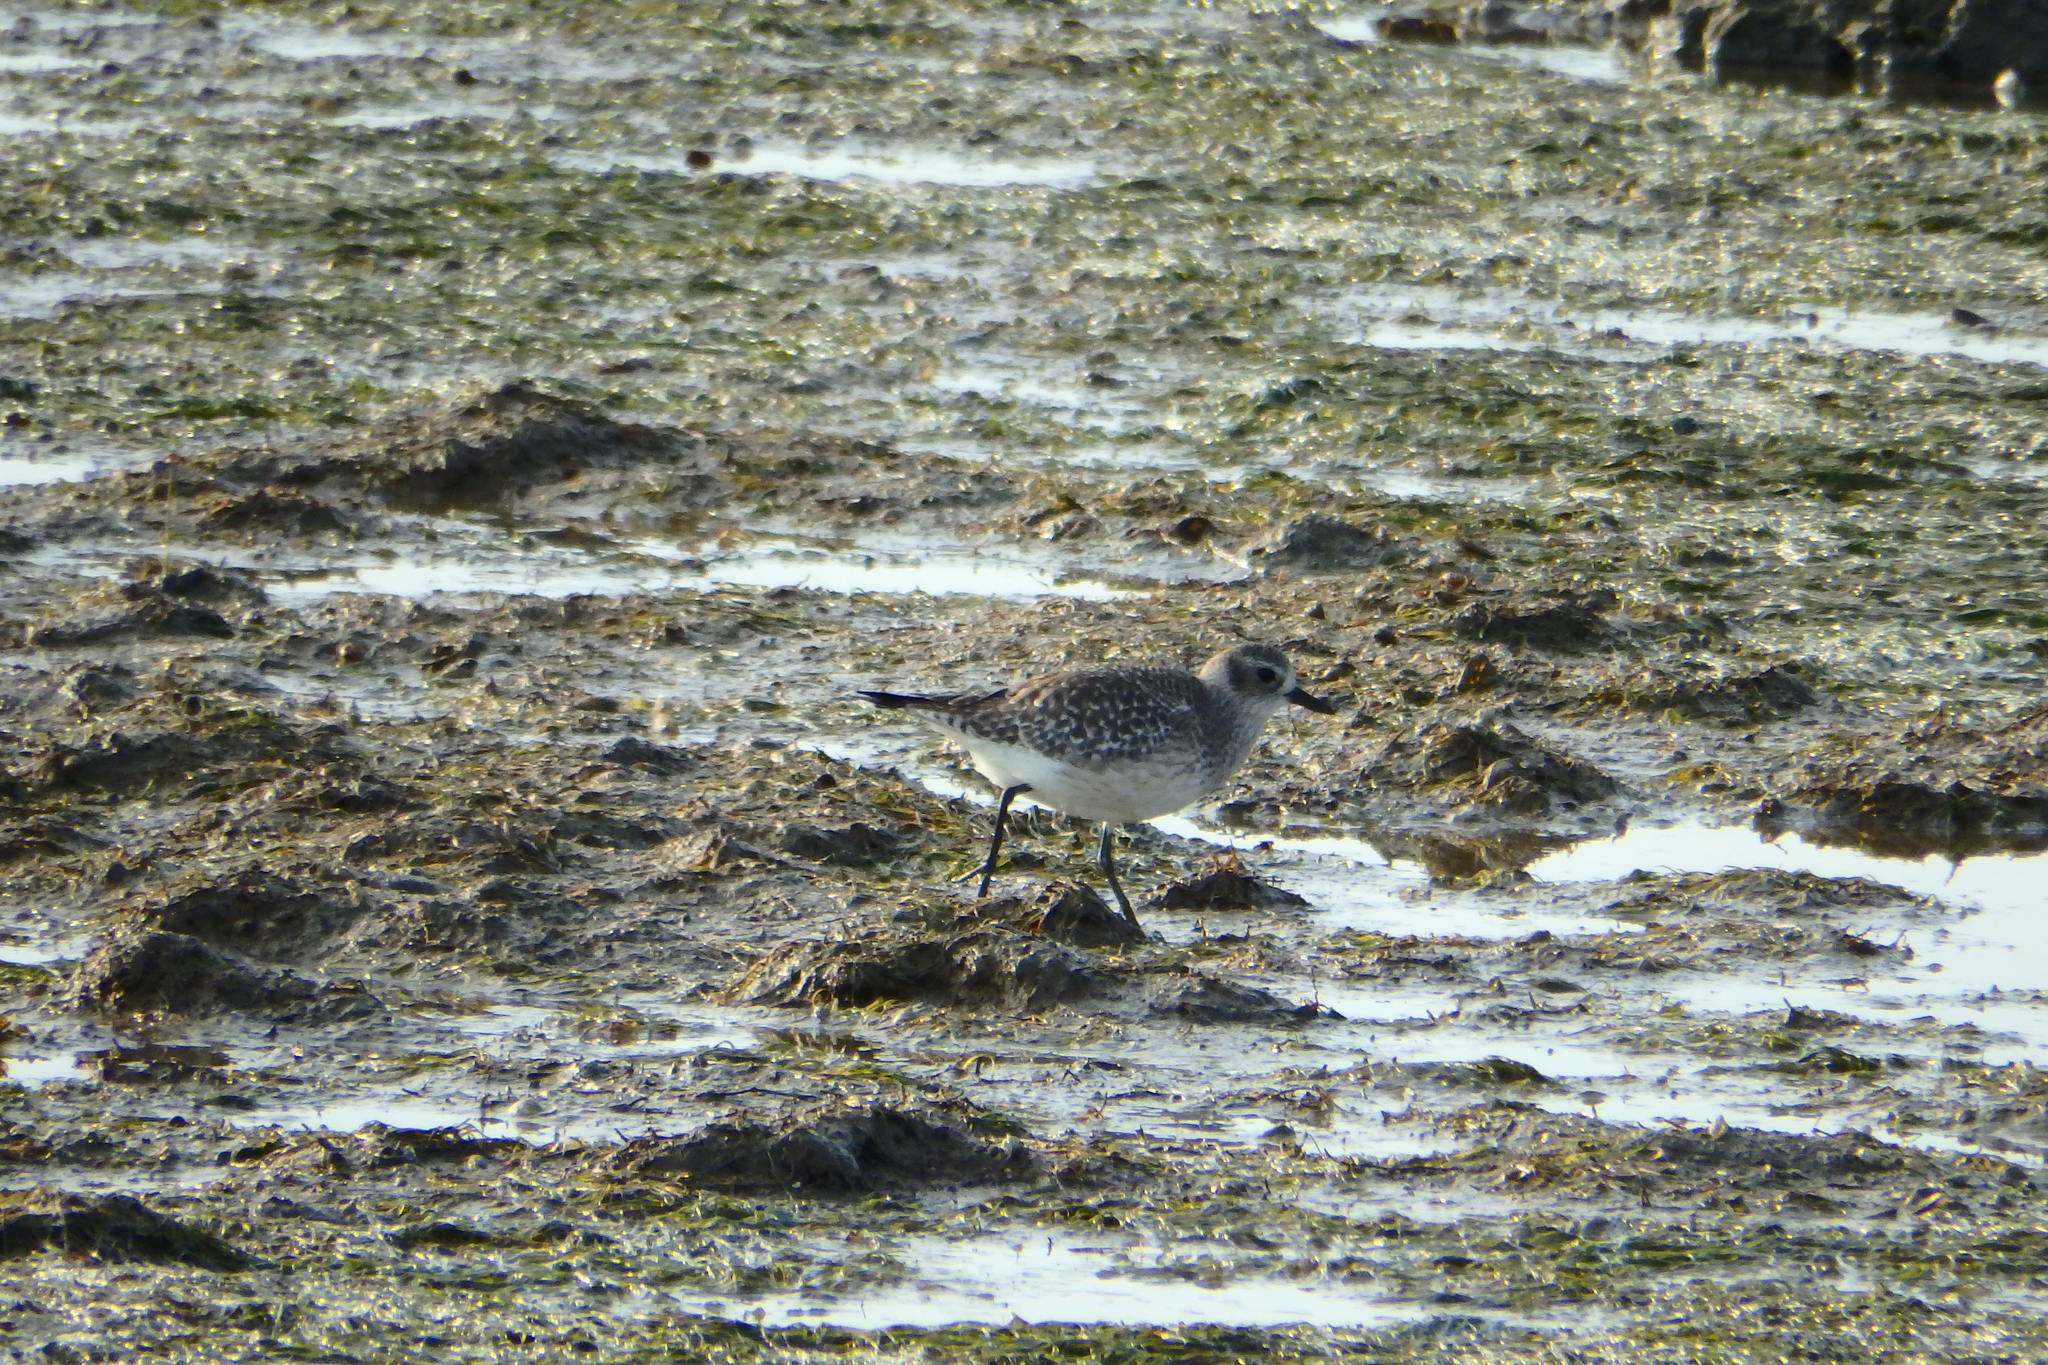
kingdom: Animalia
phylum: Chordata
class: Aves
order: Charadriiformes
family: Charadriidae
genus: Pluvialis
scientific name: Pluvialis squatarola
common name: Grey plover
